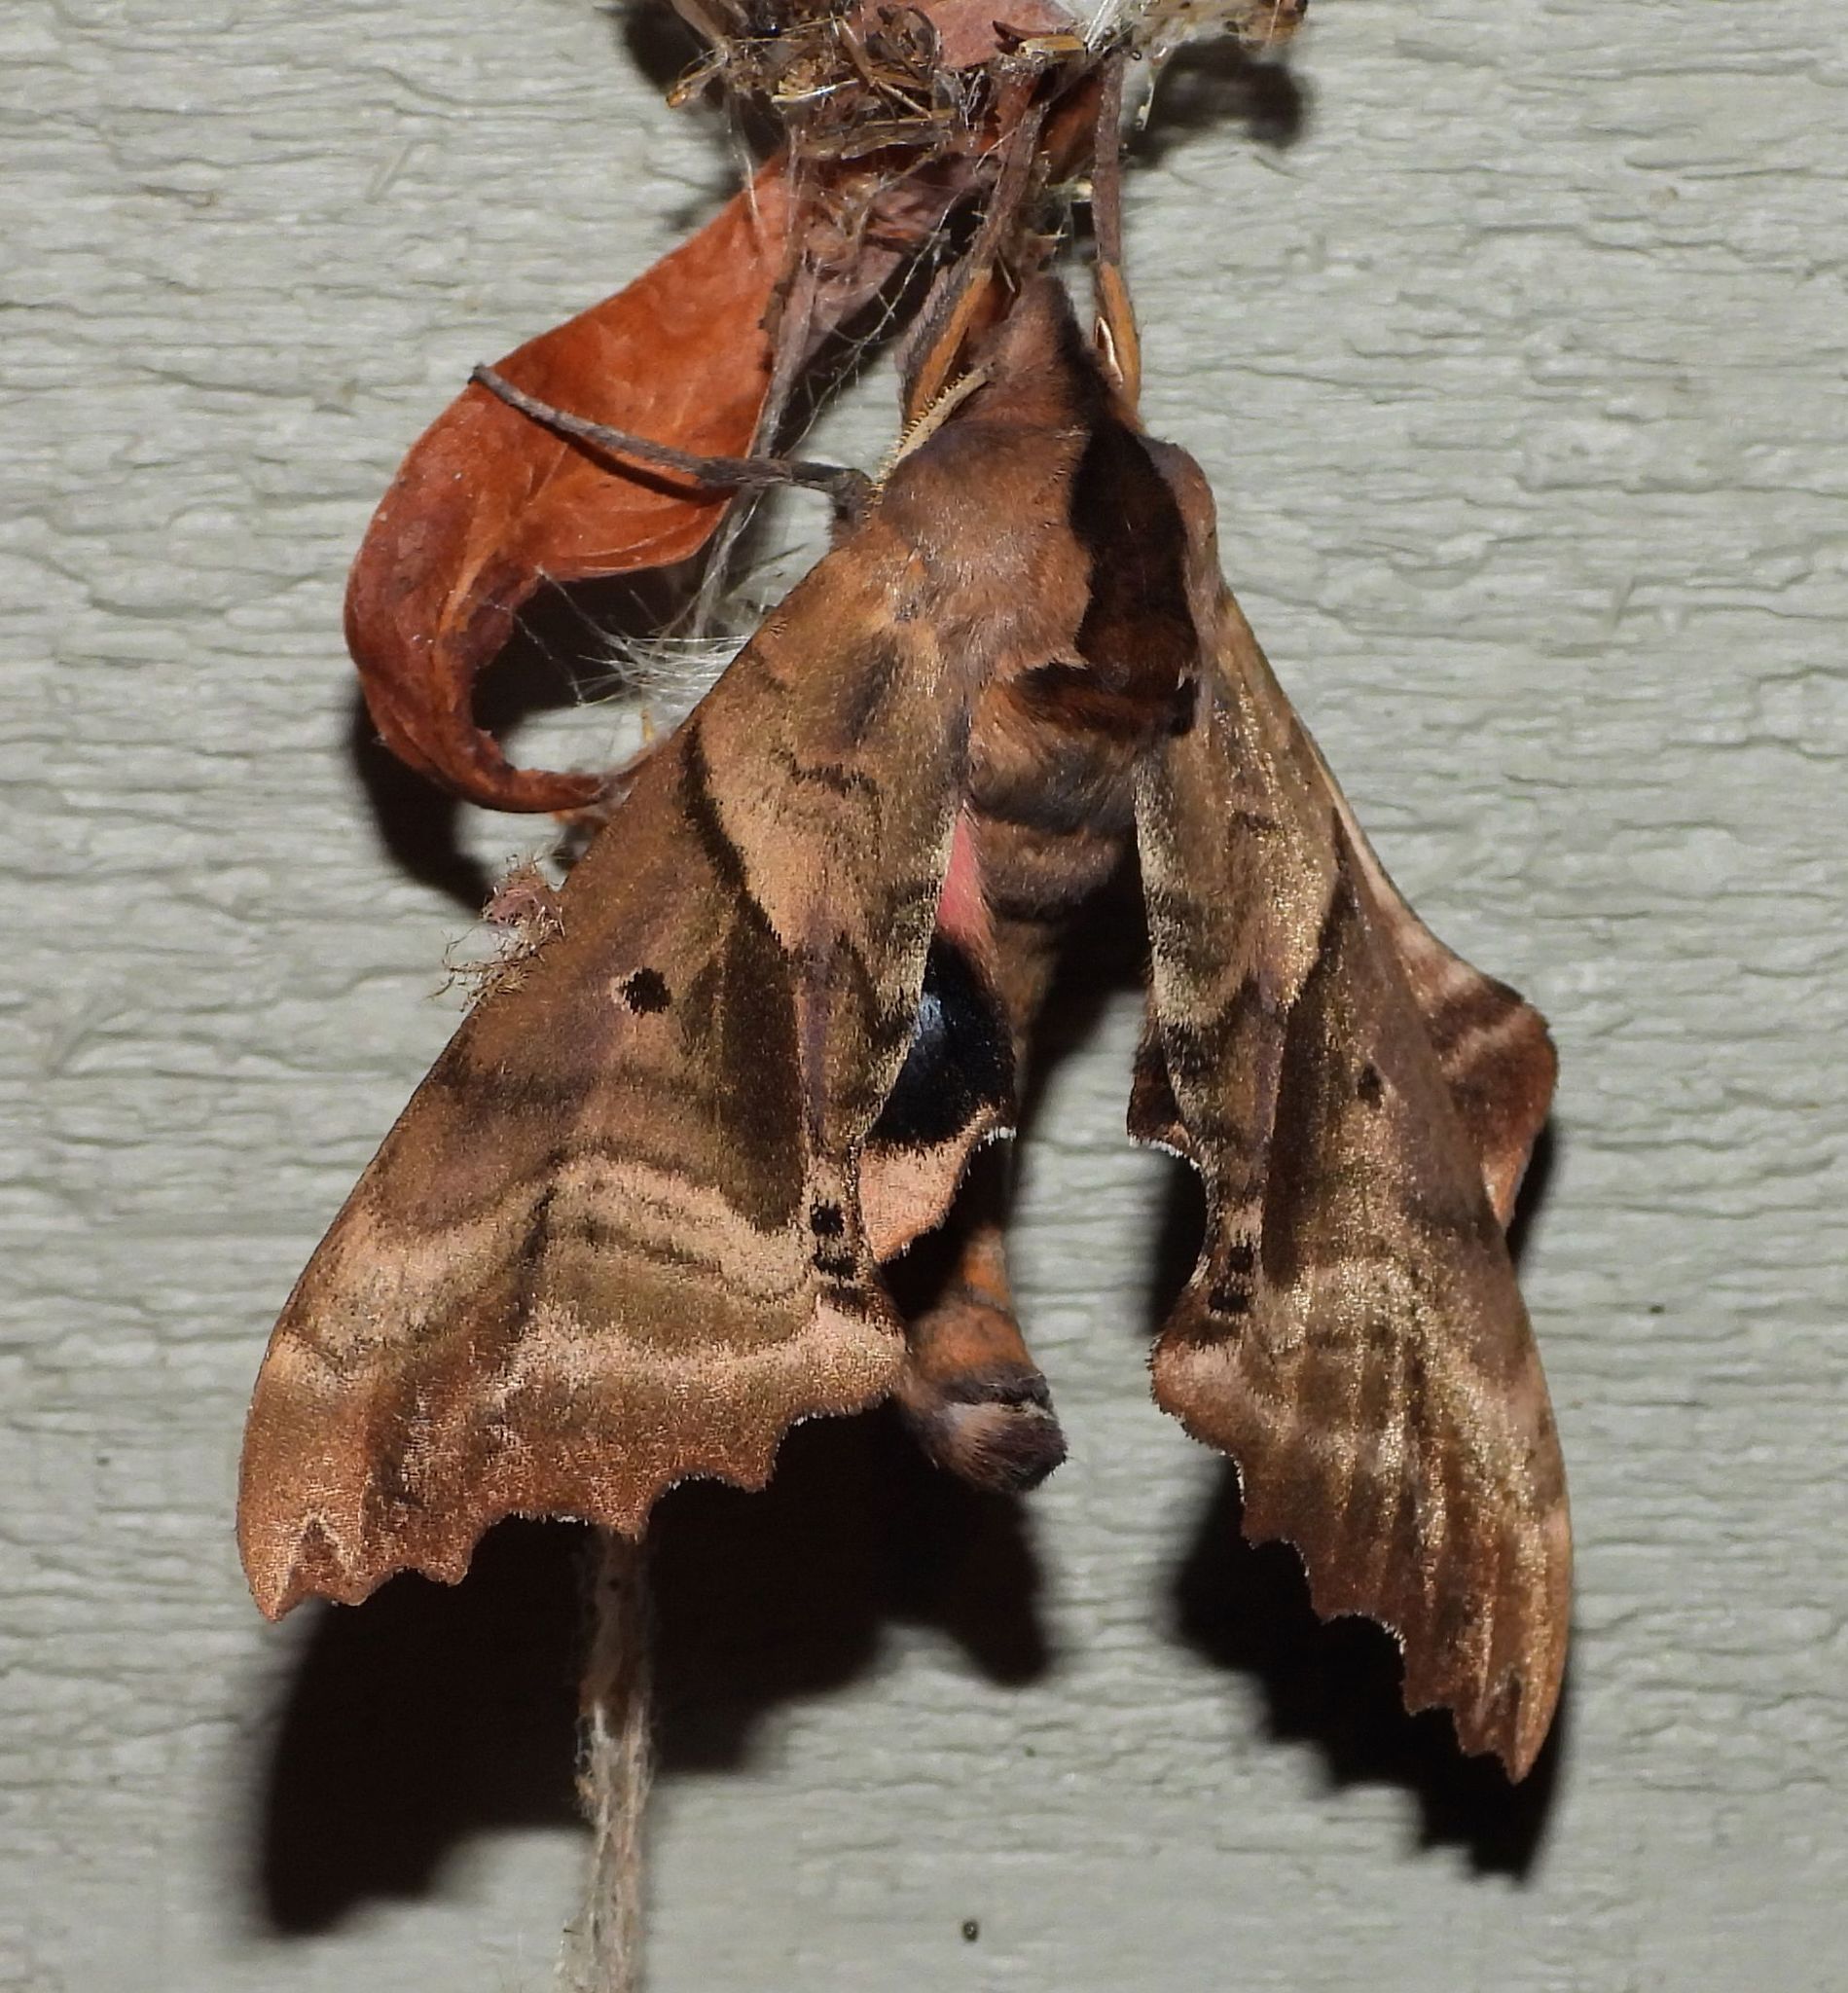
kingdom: Animalia
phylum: Arthropoda
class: Insecta
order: Lepidoptera
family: Sphingidae
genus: Paonias
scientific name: Paonias excaecata
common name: Blind-eyed sphinx
